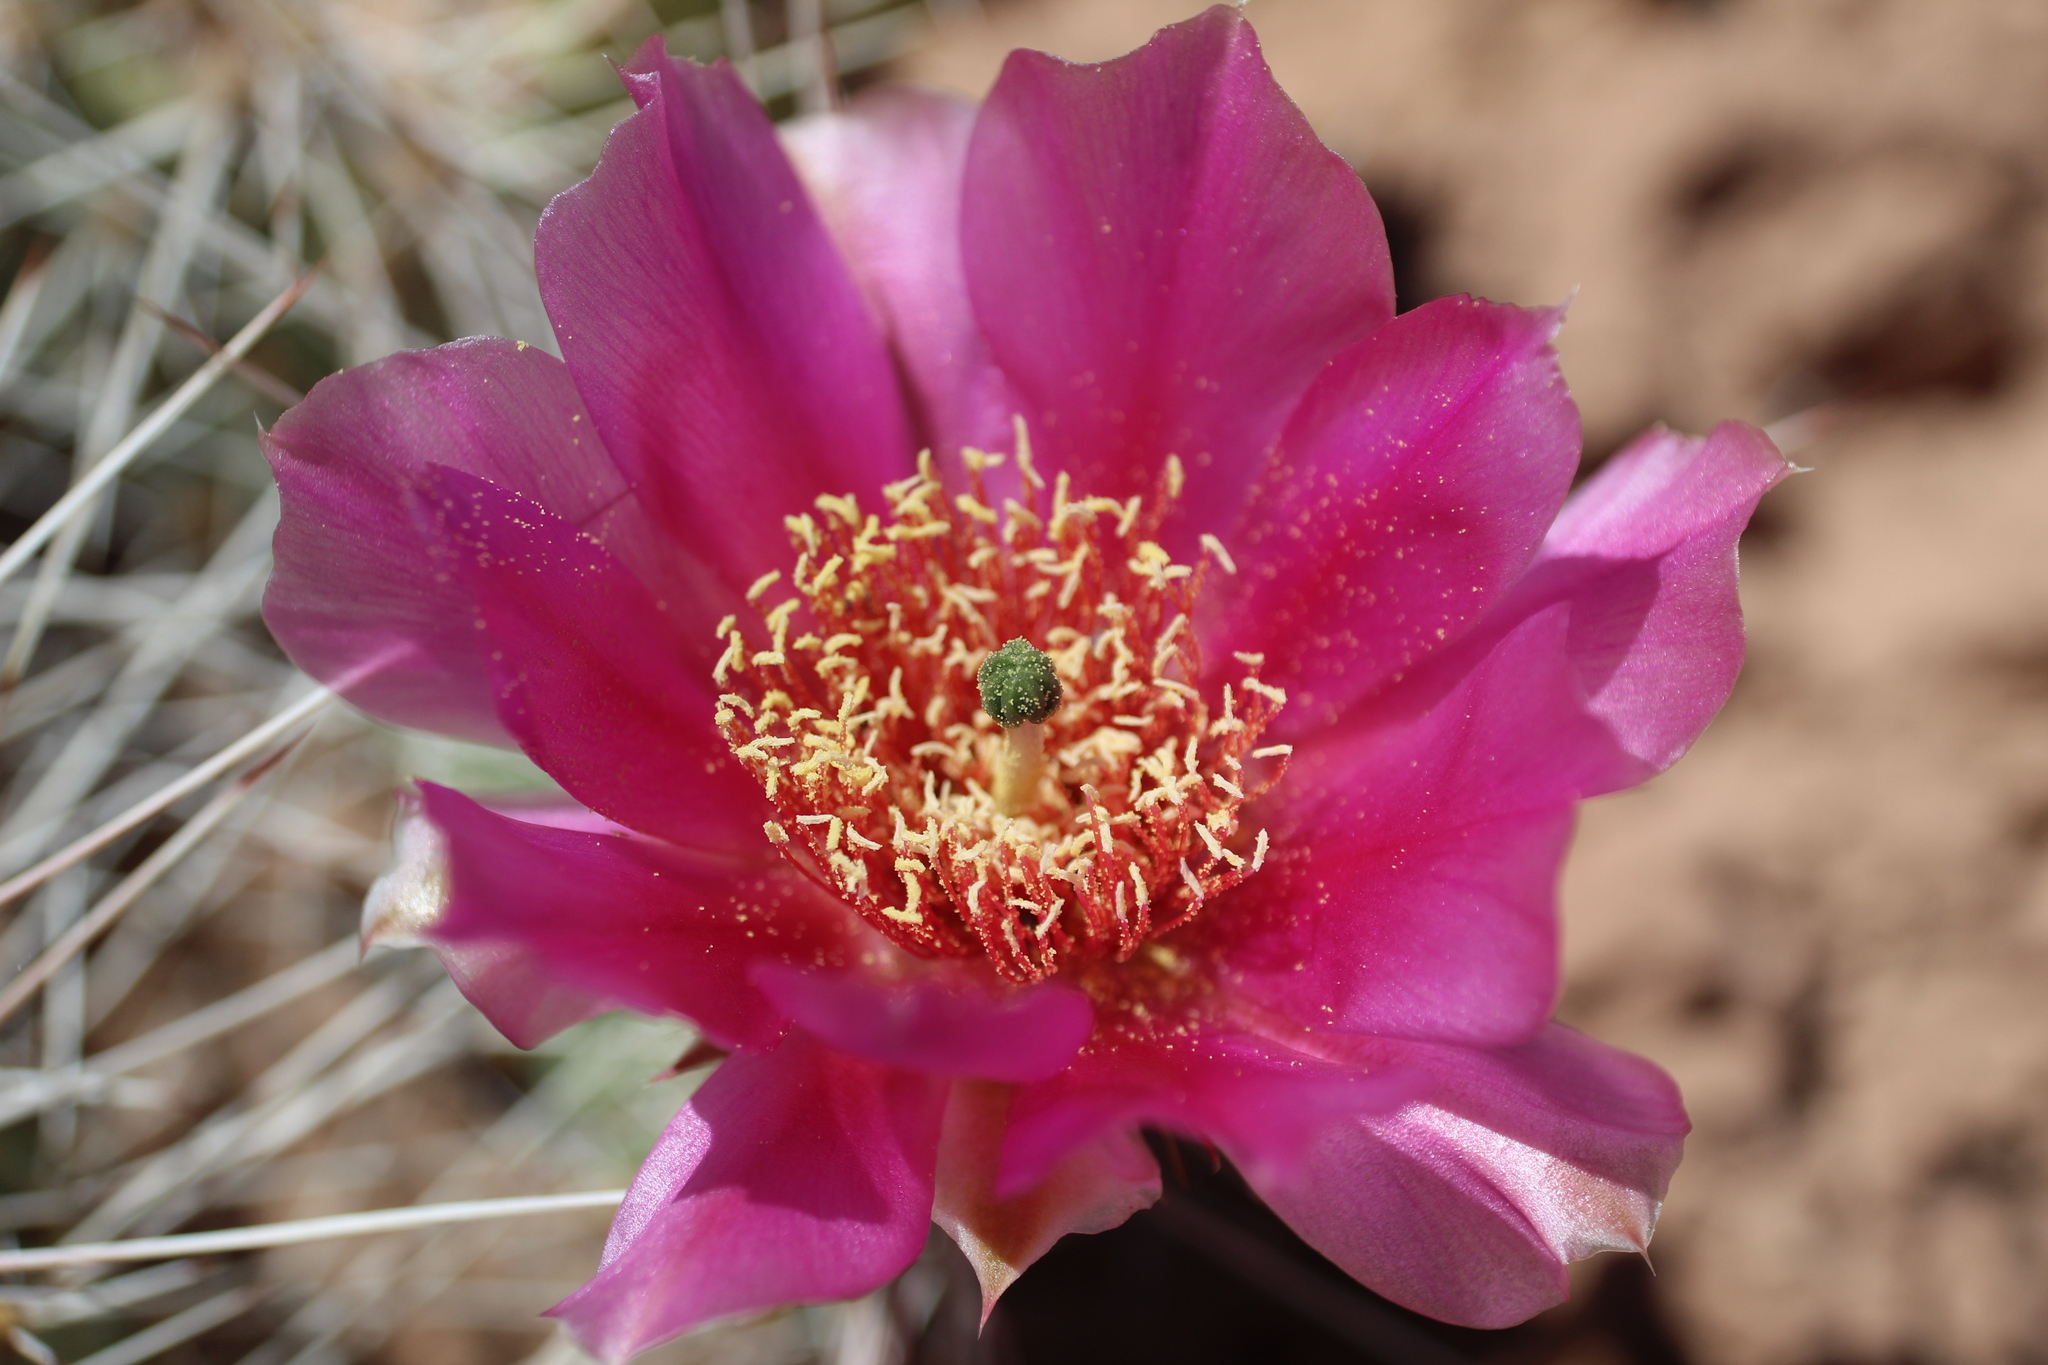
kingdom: Plantae
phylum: Tracheophyta
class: Magnoliopsida
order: Caryophyllales
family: Cactaceae
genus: Opuntia
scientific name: Opuntia polyacantha
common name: Plains prickly-pear
